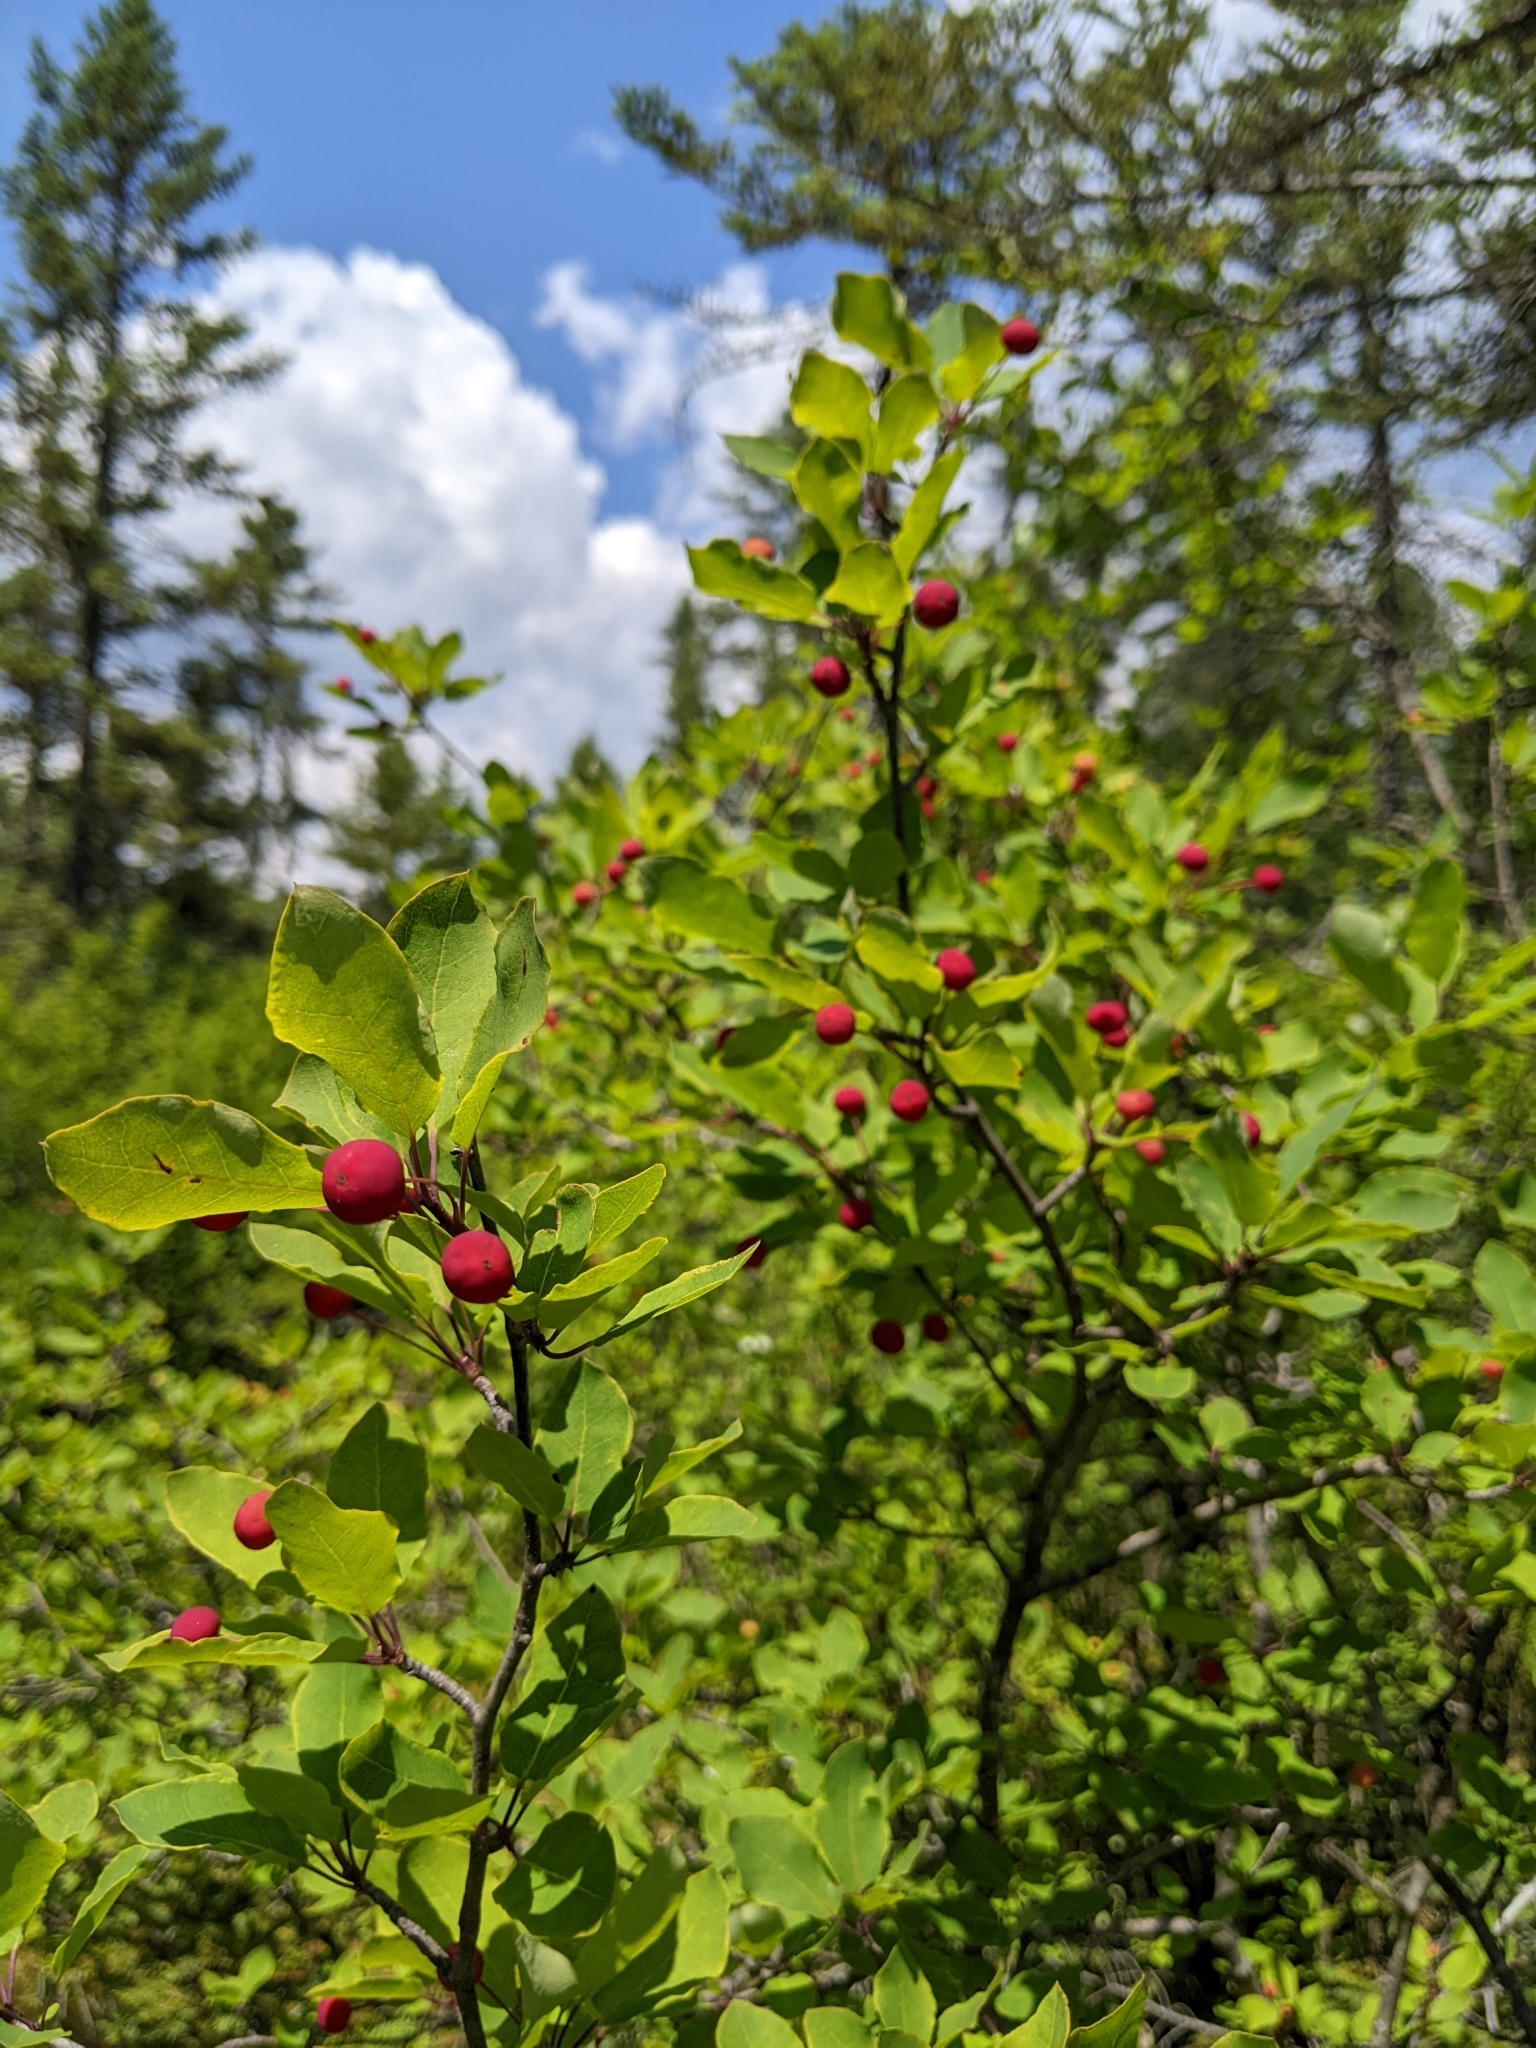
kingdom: Plantae
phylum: Tracheophyta
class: Magnoliopsida
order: Aquifoliales
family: Aquifoliaceae
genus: Ilex
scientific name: Ilex mucronata
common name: Catberry
